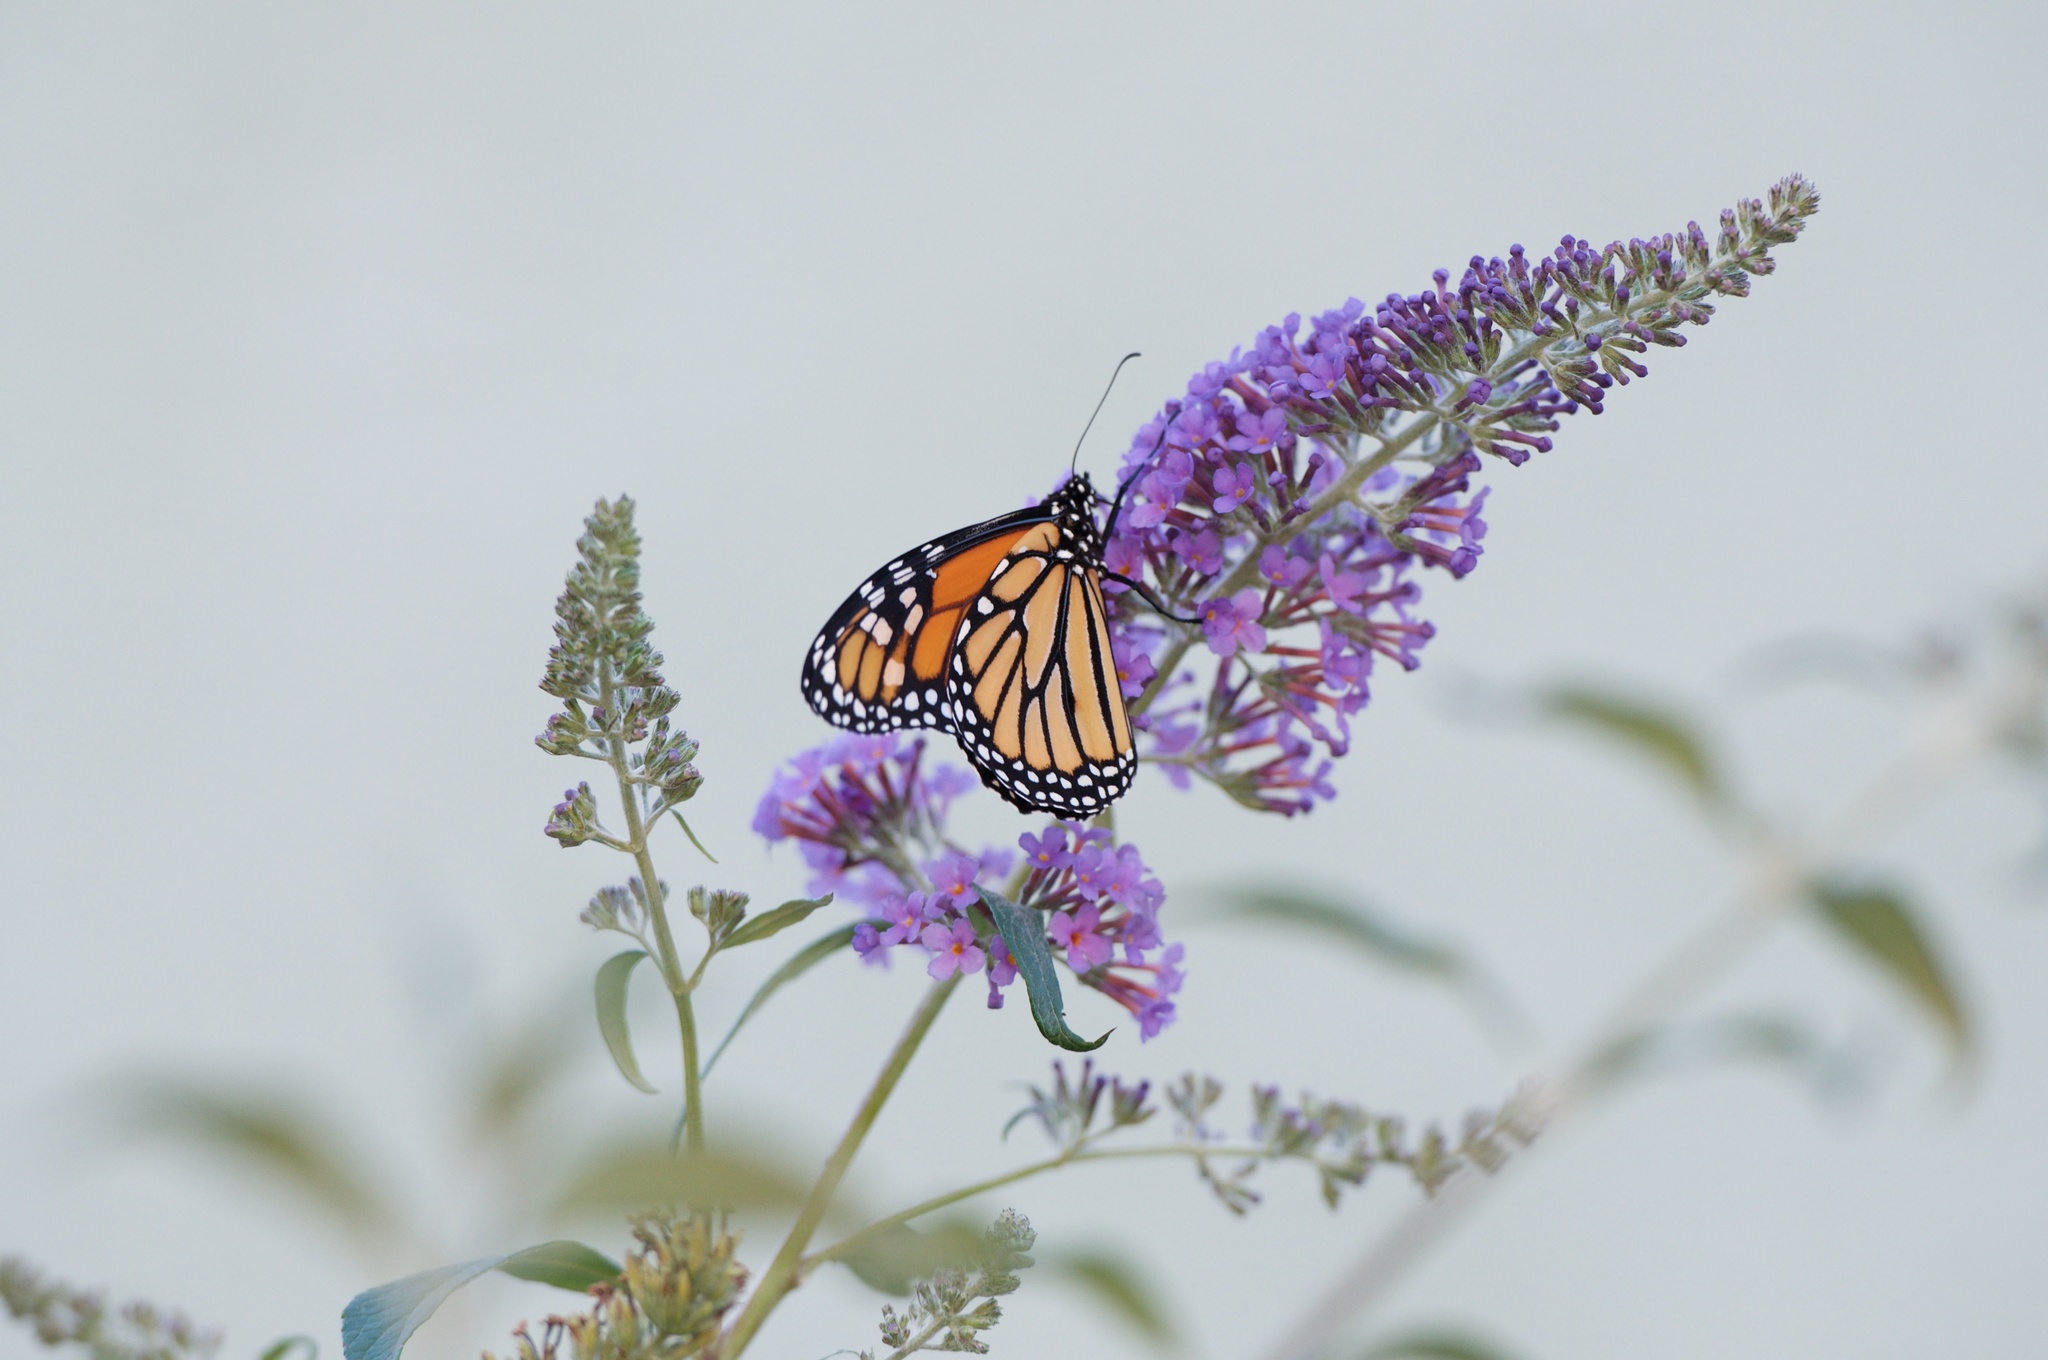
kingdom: Animalia
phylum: Arthropoda
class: Insecta
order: Lepidoptera
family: Nymphalidae
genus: Danaus
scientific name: Danaus plexippus
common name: Monarch
